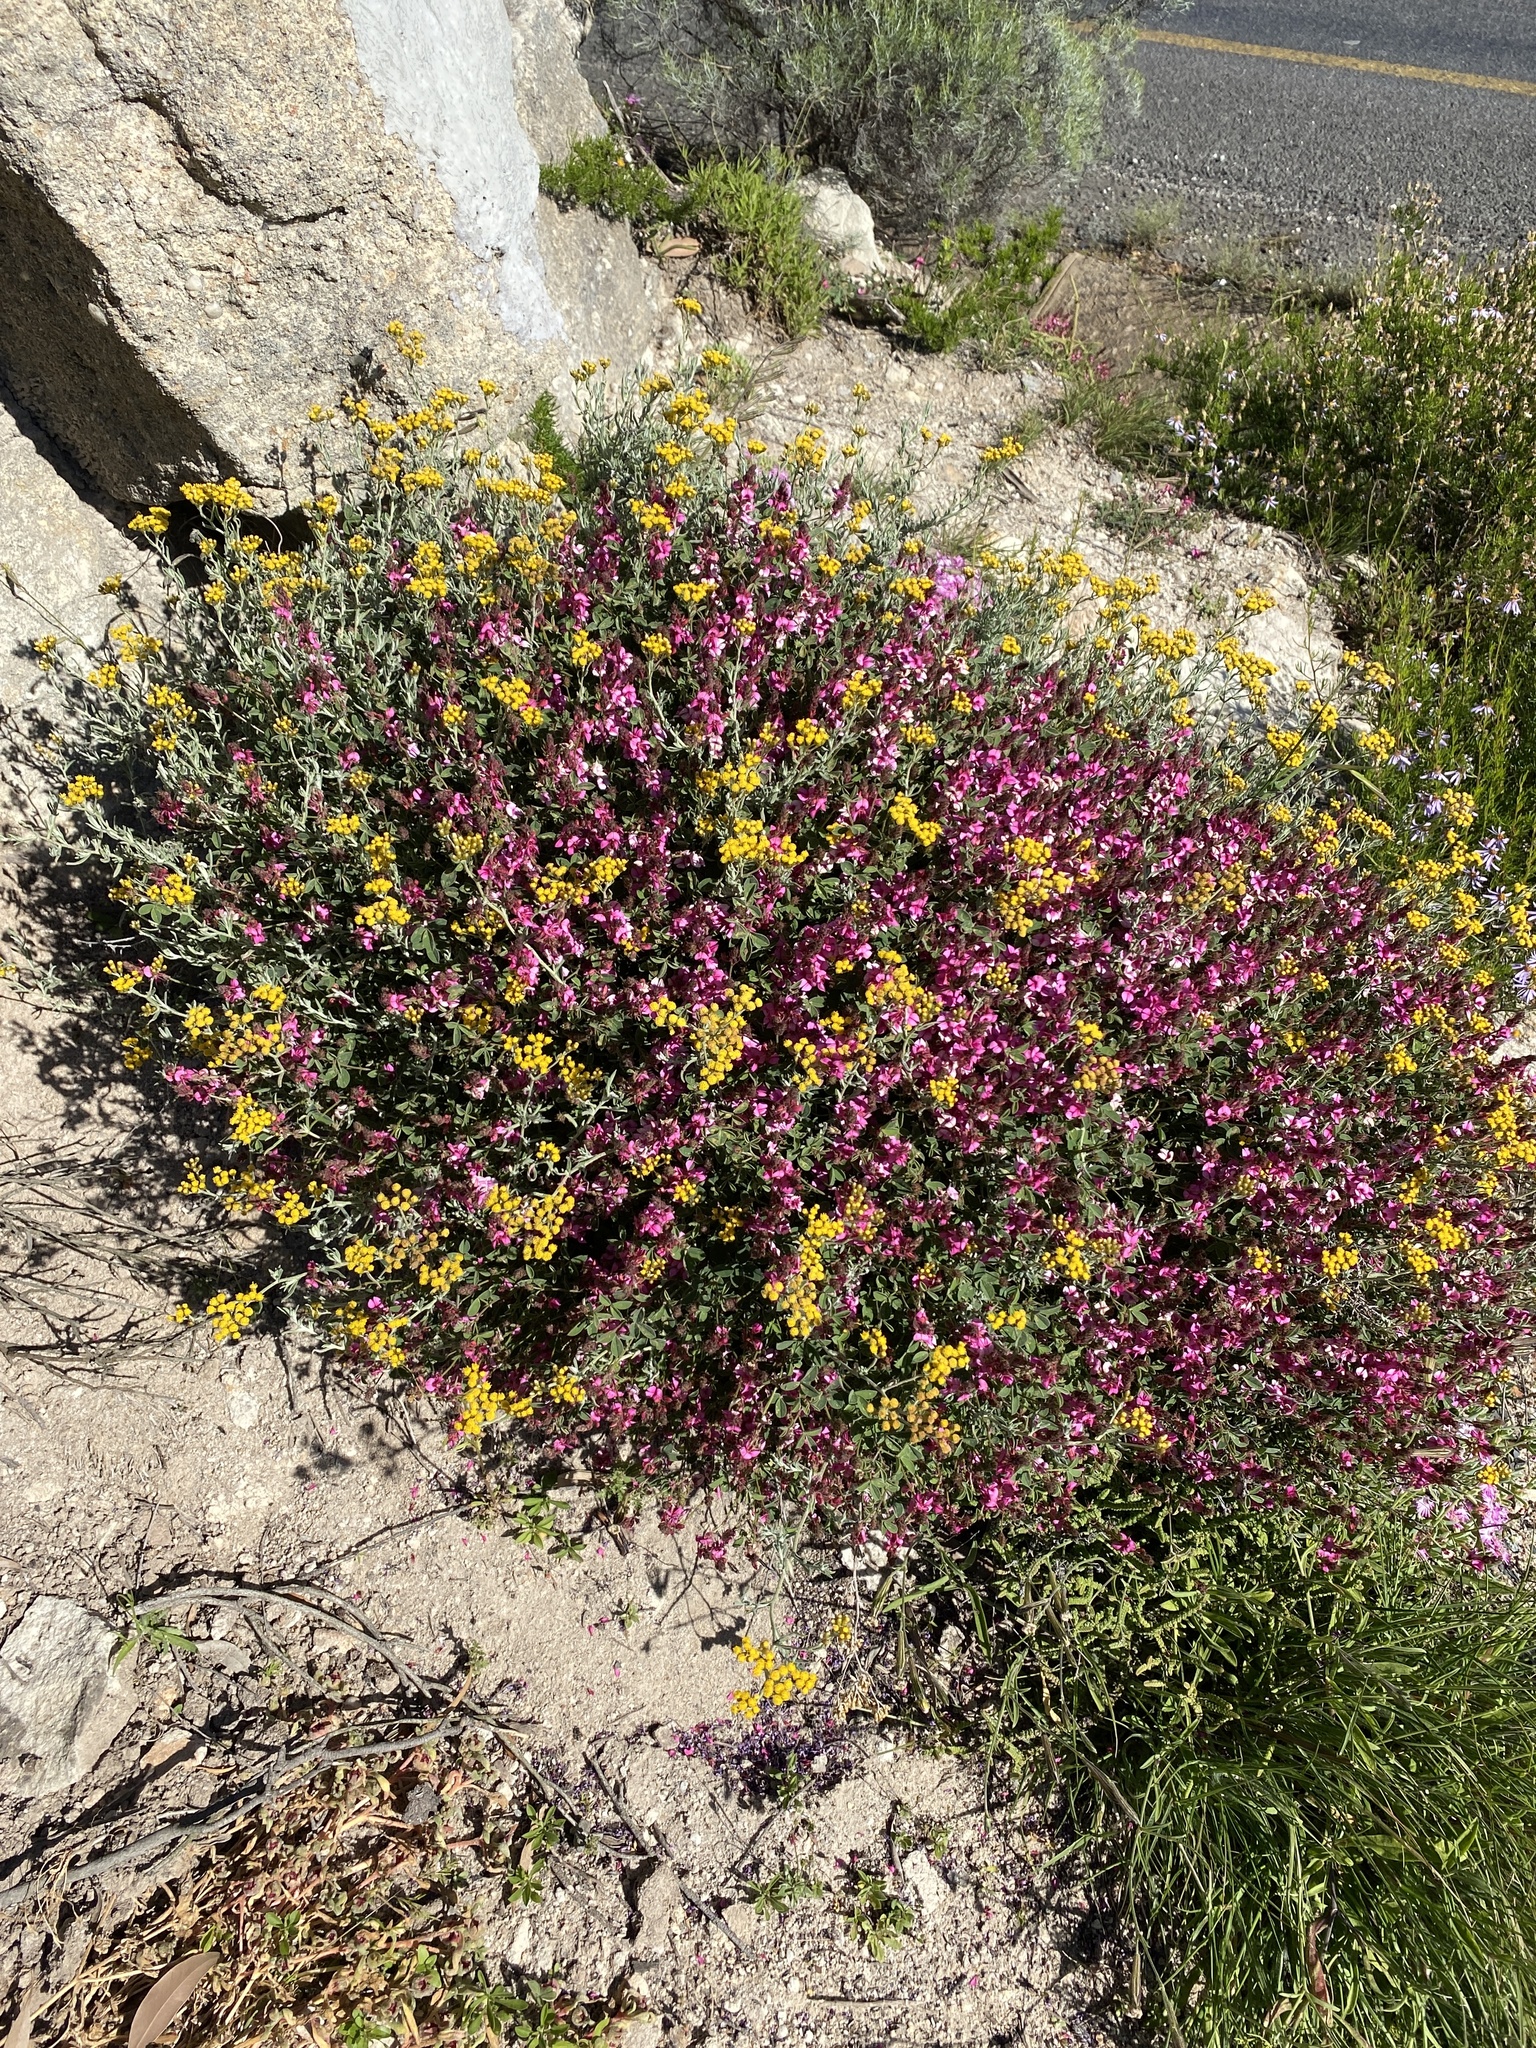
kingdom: Plantae
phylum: Tracheophyta
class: Magnoliopsida
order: Fabales
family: Fabaceae
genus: Indigofera
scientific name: Indigofera
